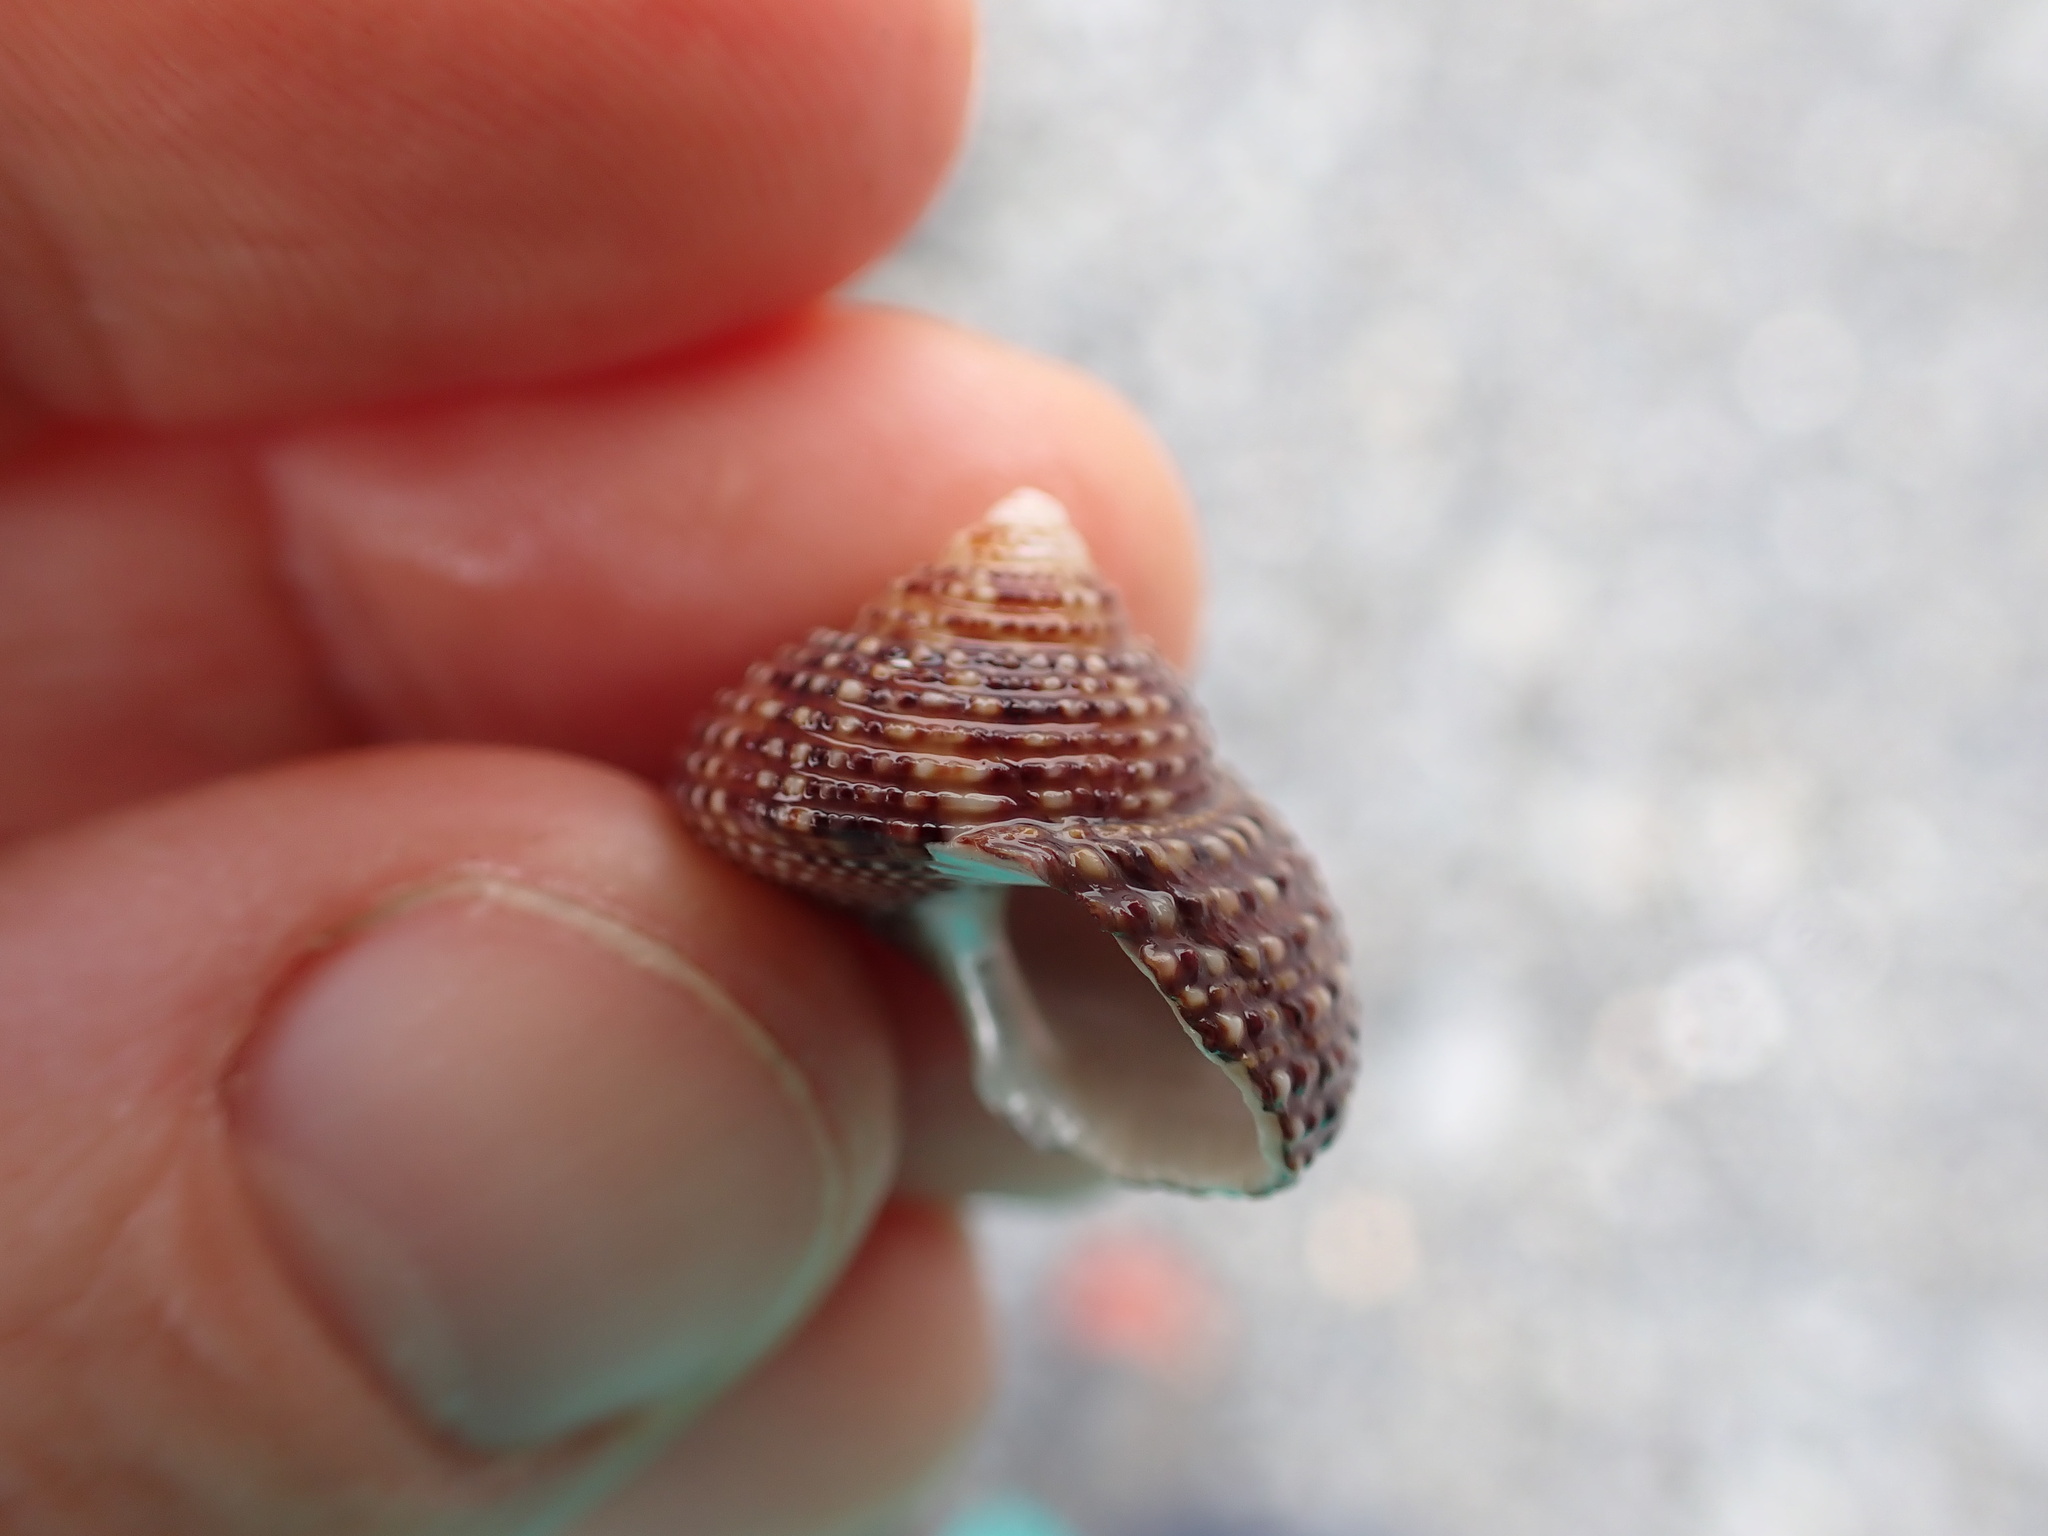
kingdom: Animalia
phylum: Mollusca
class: Gastropoda
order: Trochida
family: Calliostomatidae
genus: Maurea
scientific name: Maurea punctulata
